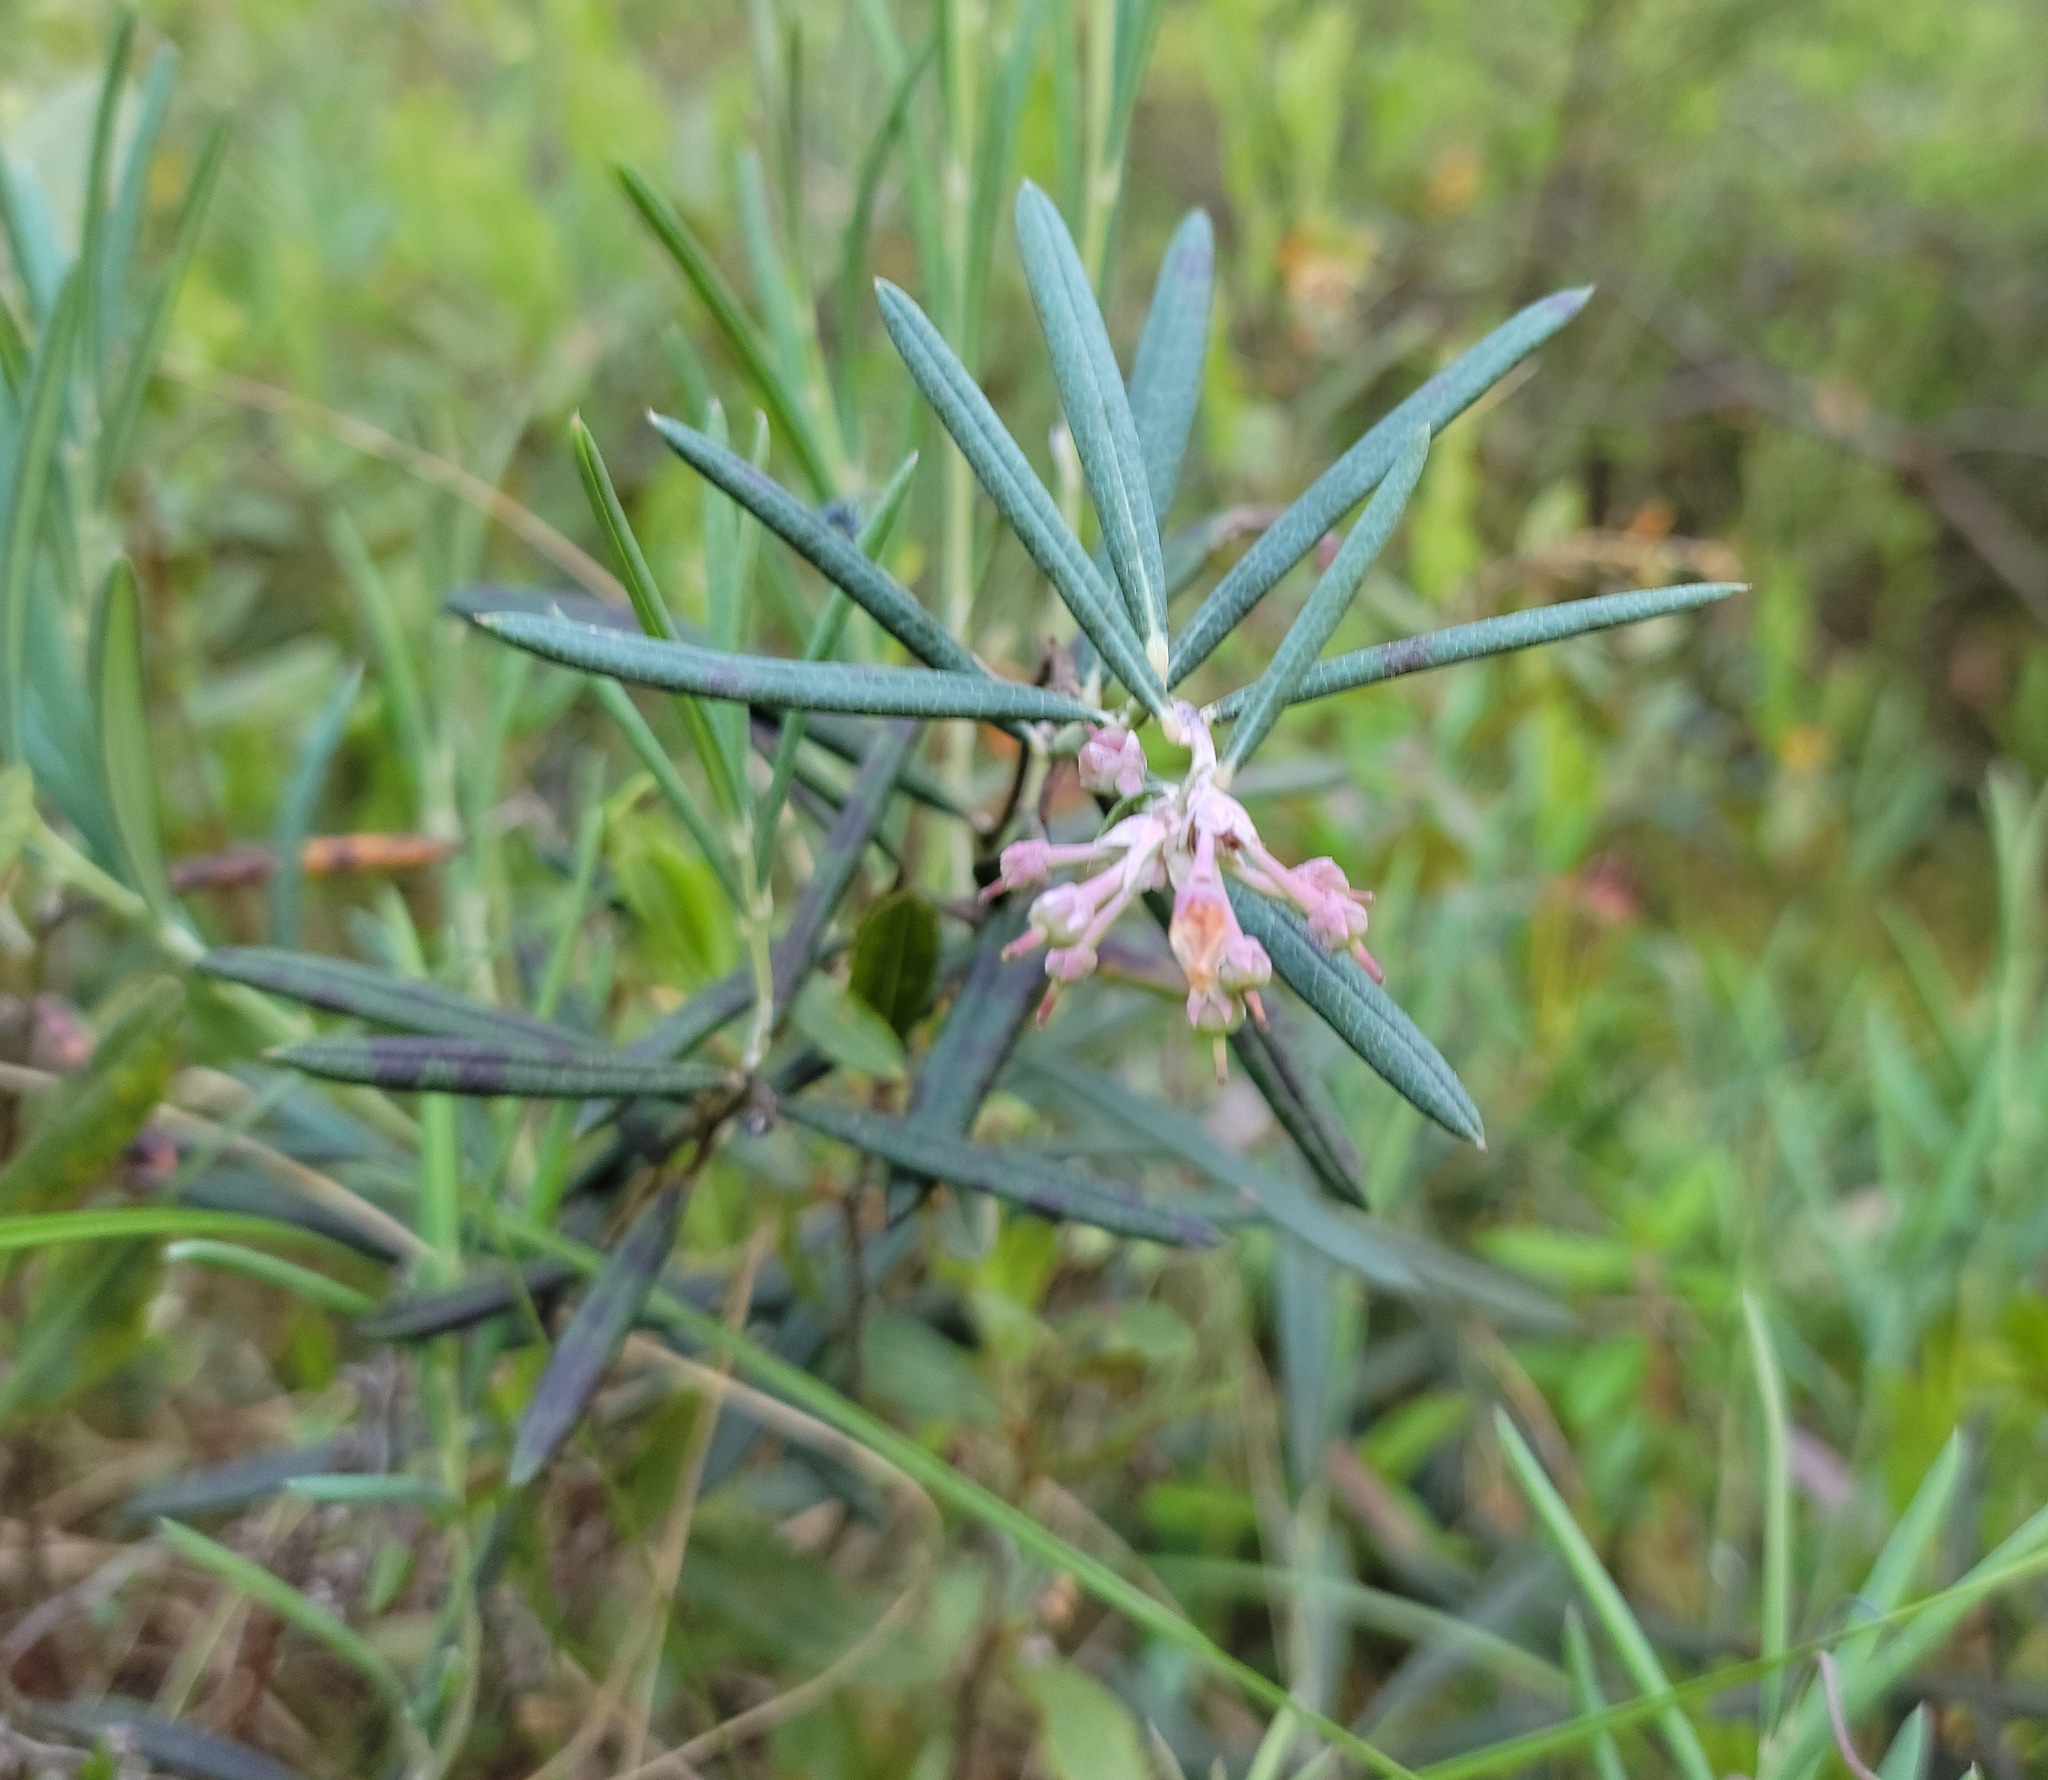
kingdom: Plantae
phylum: Tracheophyta
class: Magnoliopsida
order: Ericales
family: Ericaceae
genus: Andromeda
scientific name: Andromeda polifolia
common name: Bog-rosemary
